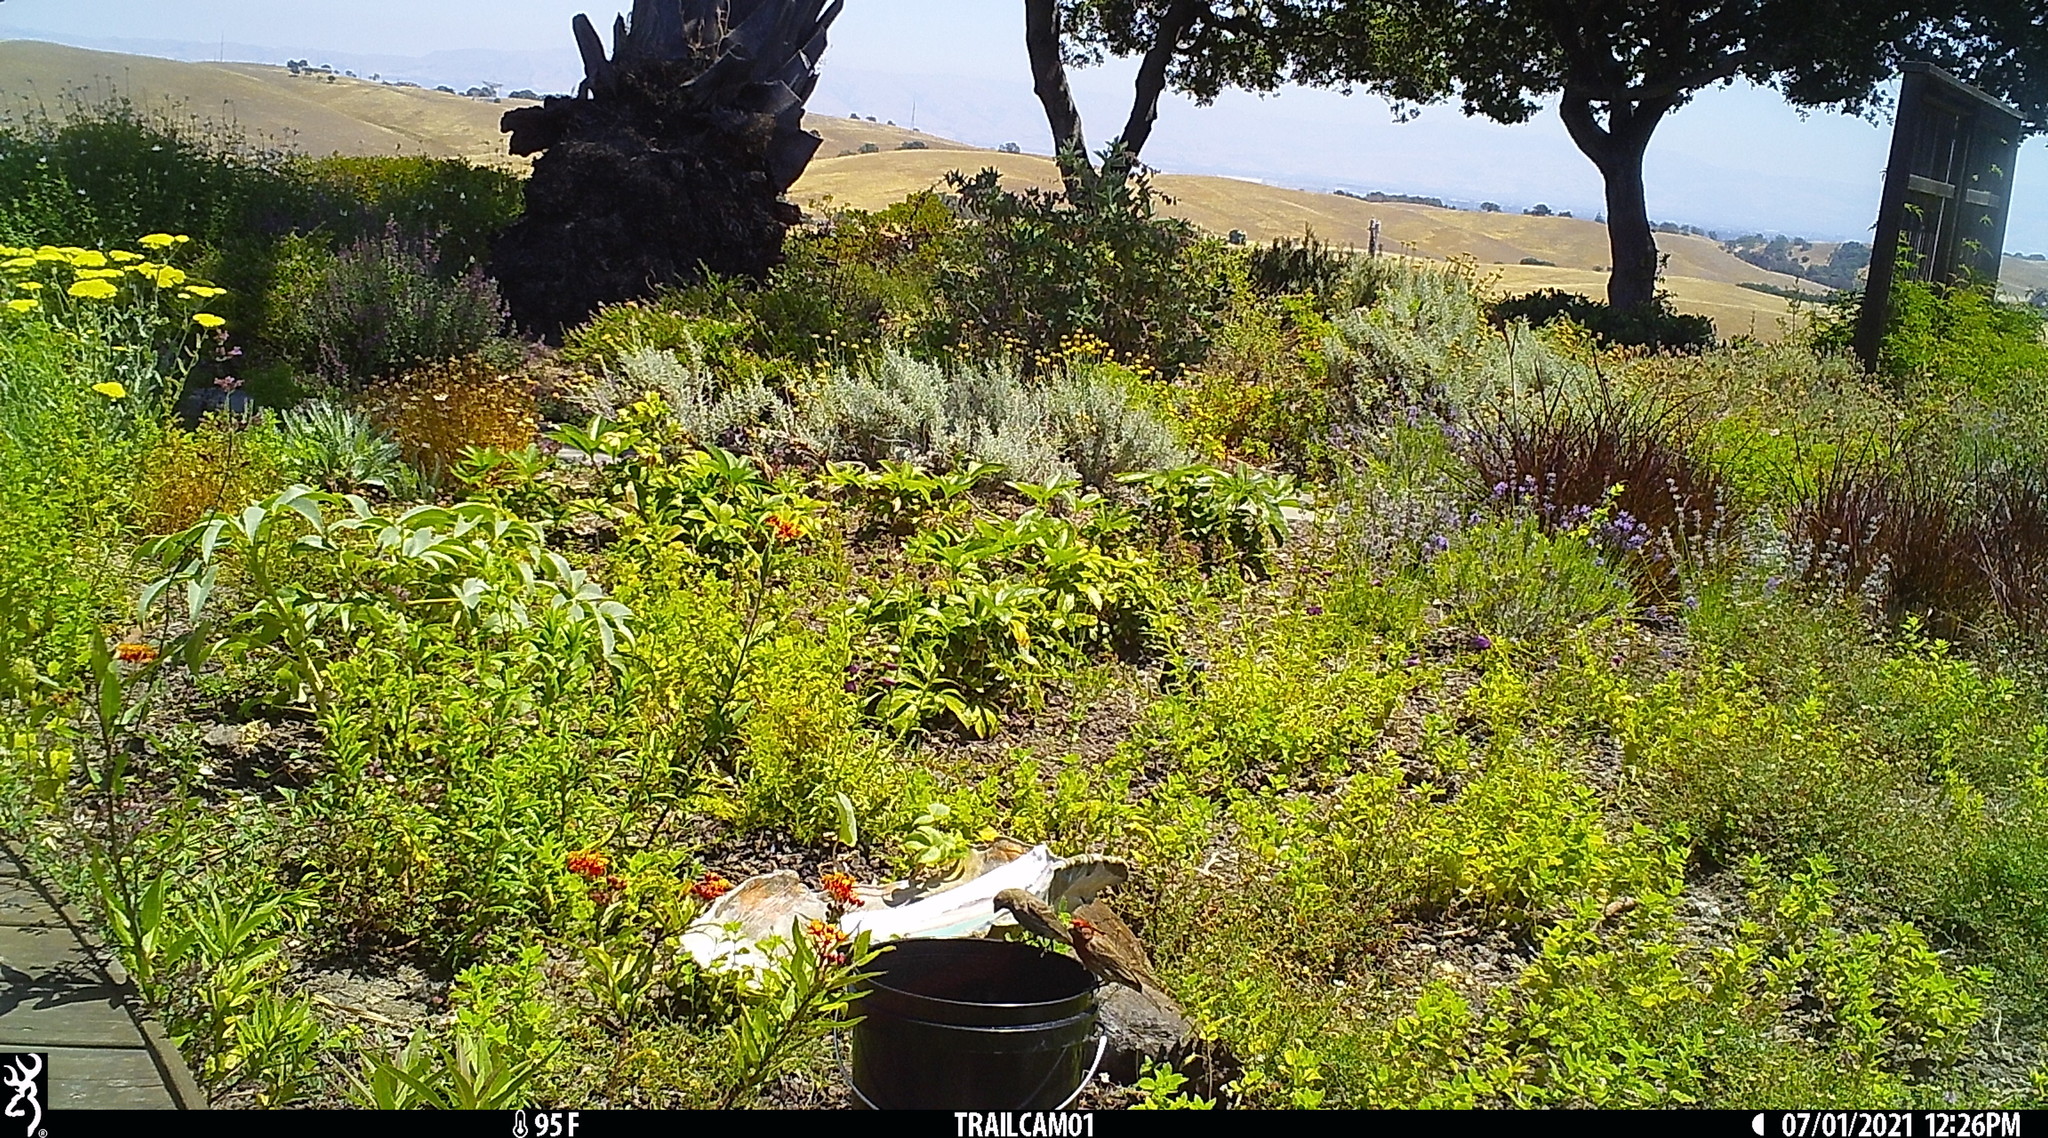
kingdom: Animalia
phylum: Chordata
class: Aves
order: Passeriformes
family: Fringillidae
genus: Haemorhous
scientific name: Haemorhous mexicanus
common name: House finch
